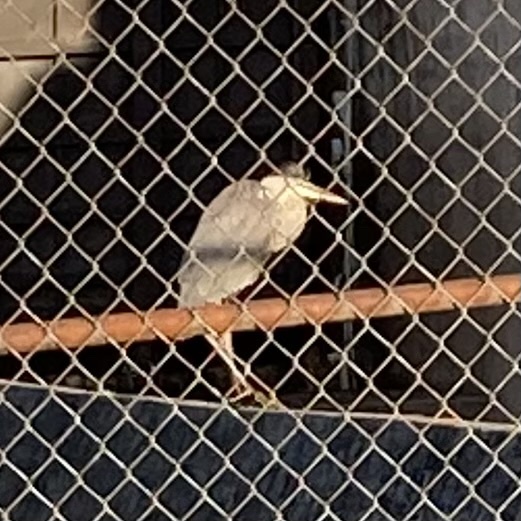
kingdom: Animalia
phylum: Chordata
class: Aves
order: Pelecaniformes
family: Ardeidae
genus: Ardea
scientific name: Ardea herodias
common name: Great blue heron
